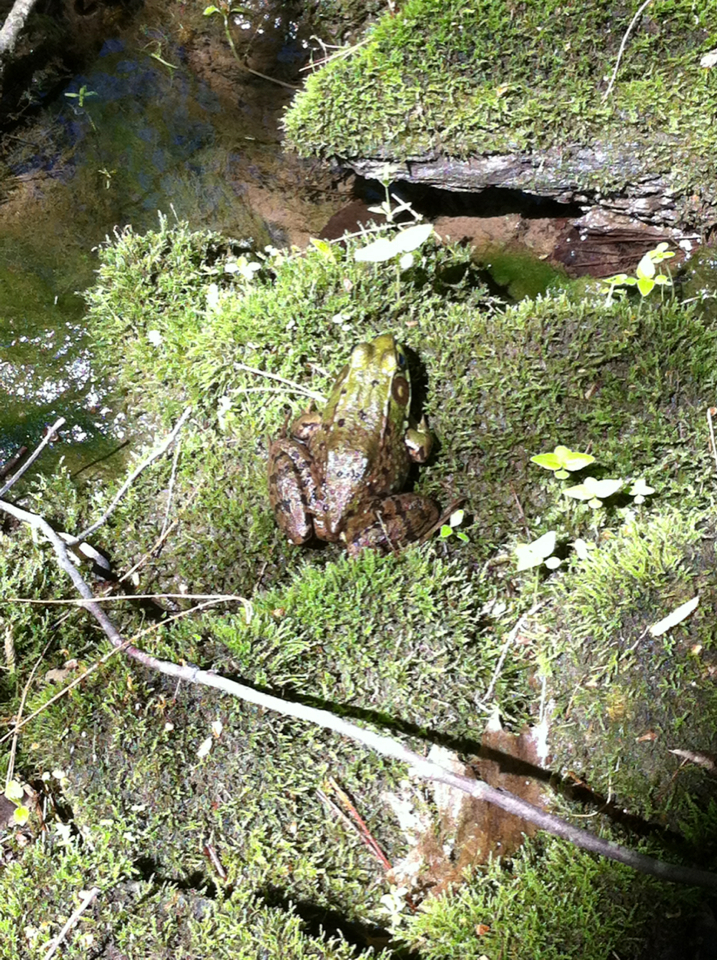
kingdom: Animalia
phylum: Chordata
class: Amphibia
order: Anura
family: Ranidae
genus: Lithobates
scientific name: Lithobates clamitans
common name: Green frog
